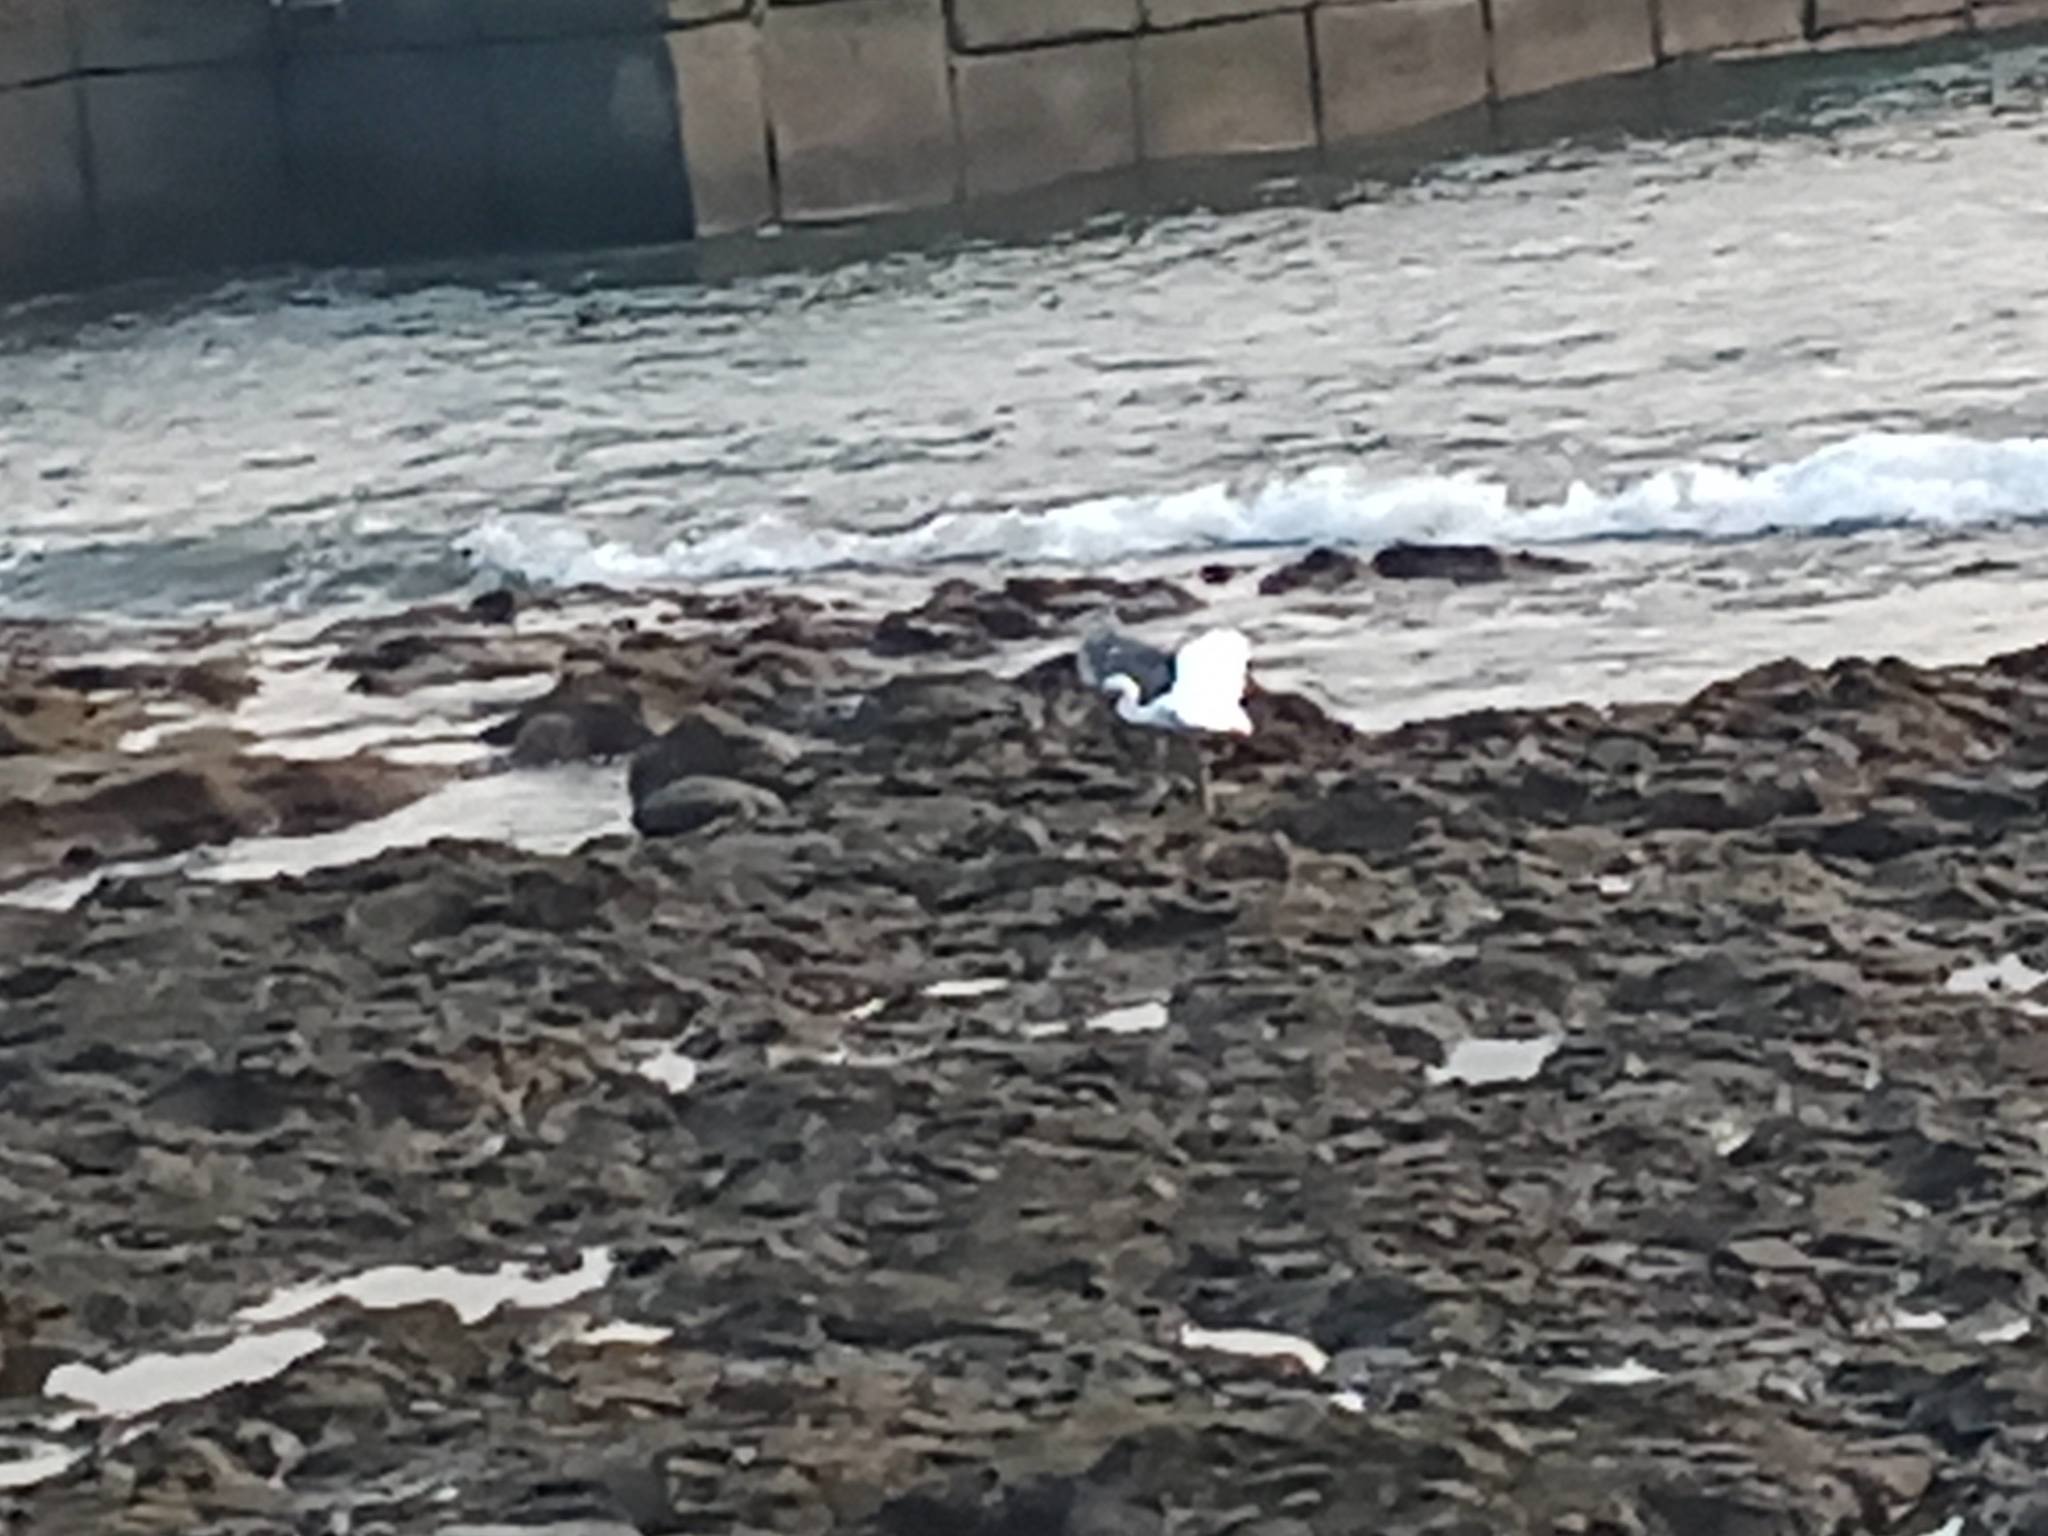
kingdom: Animalia
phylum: Chordata
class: Aves
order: Pelecaniformes
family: Ardeidae
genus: Egretta
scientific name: Egretta garzetta
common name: Little egret
